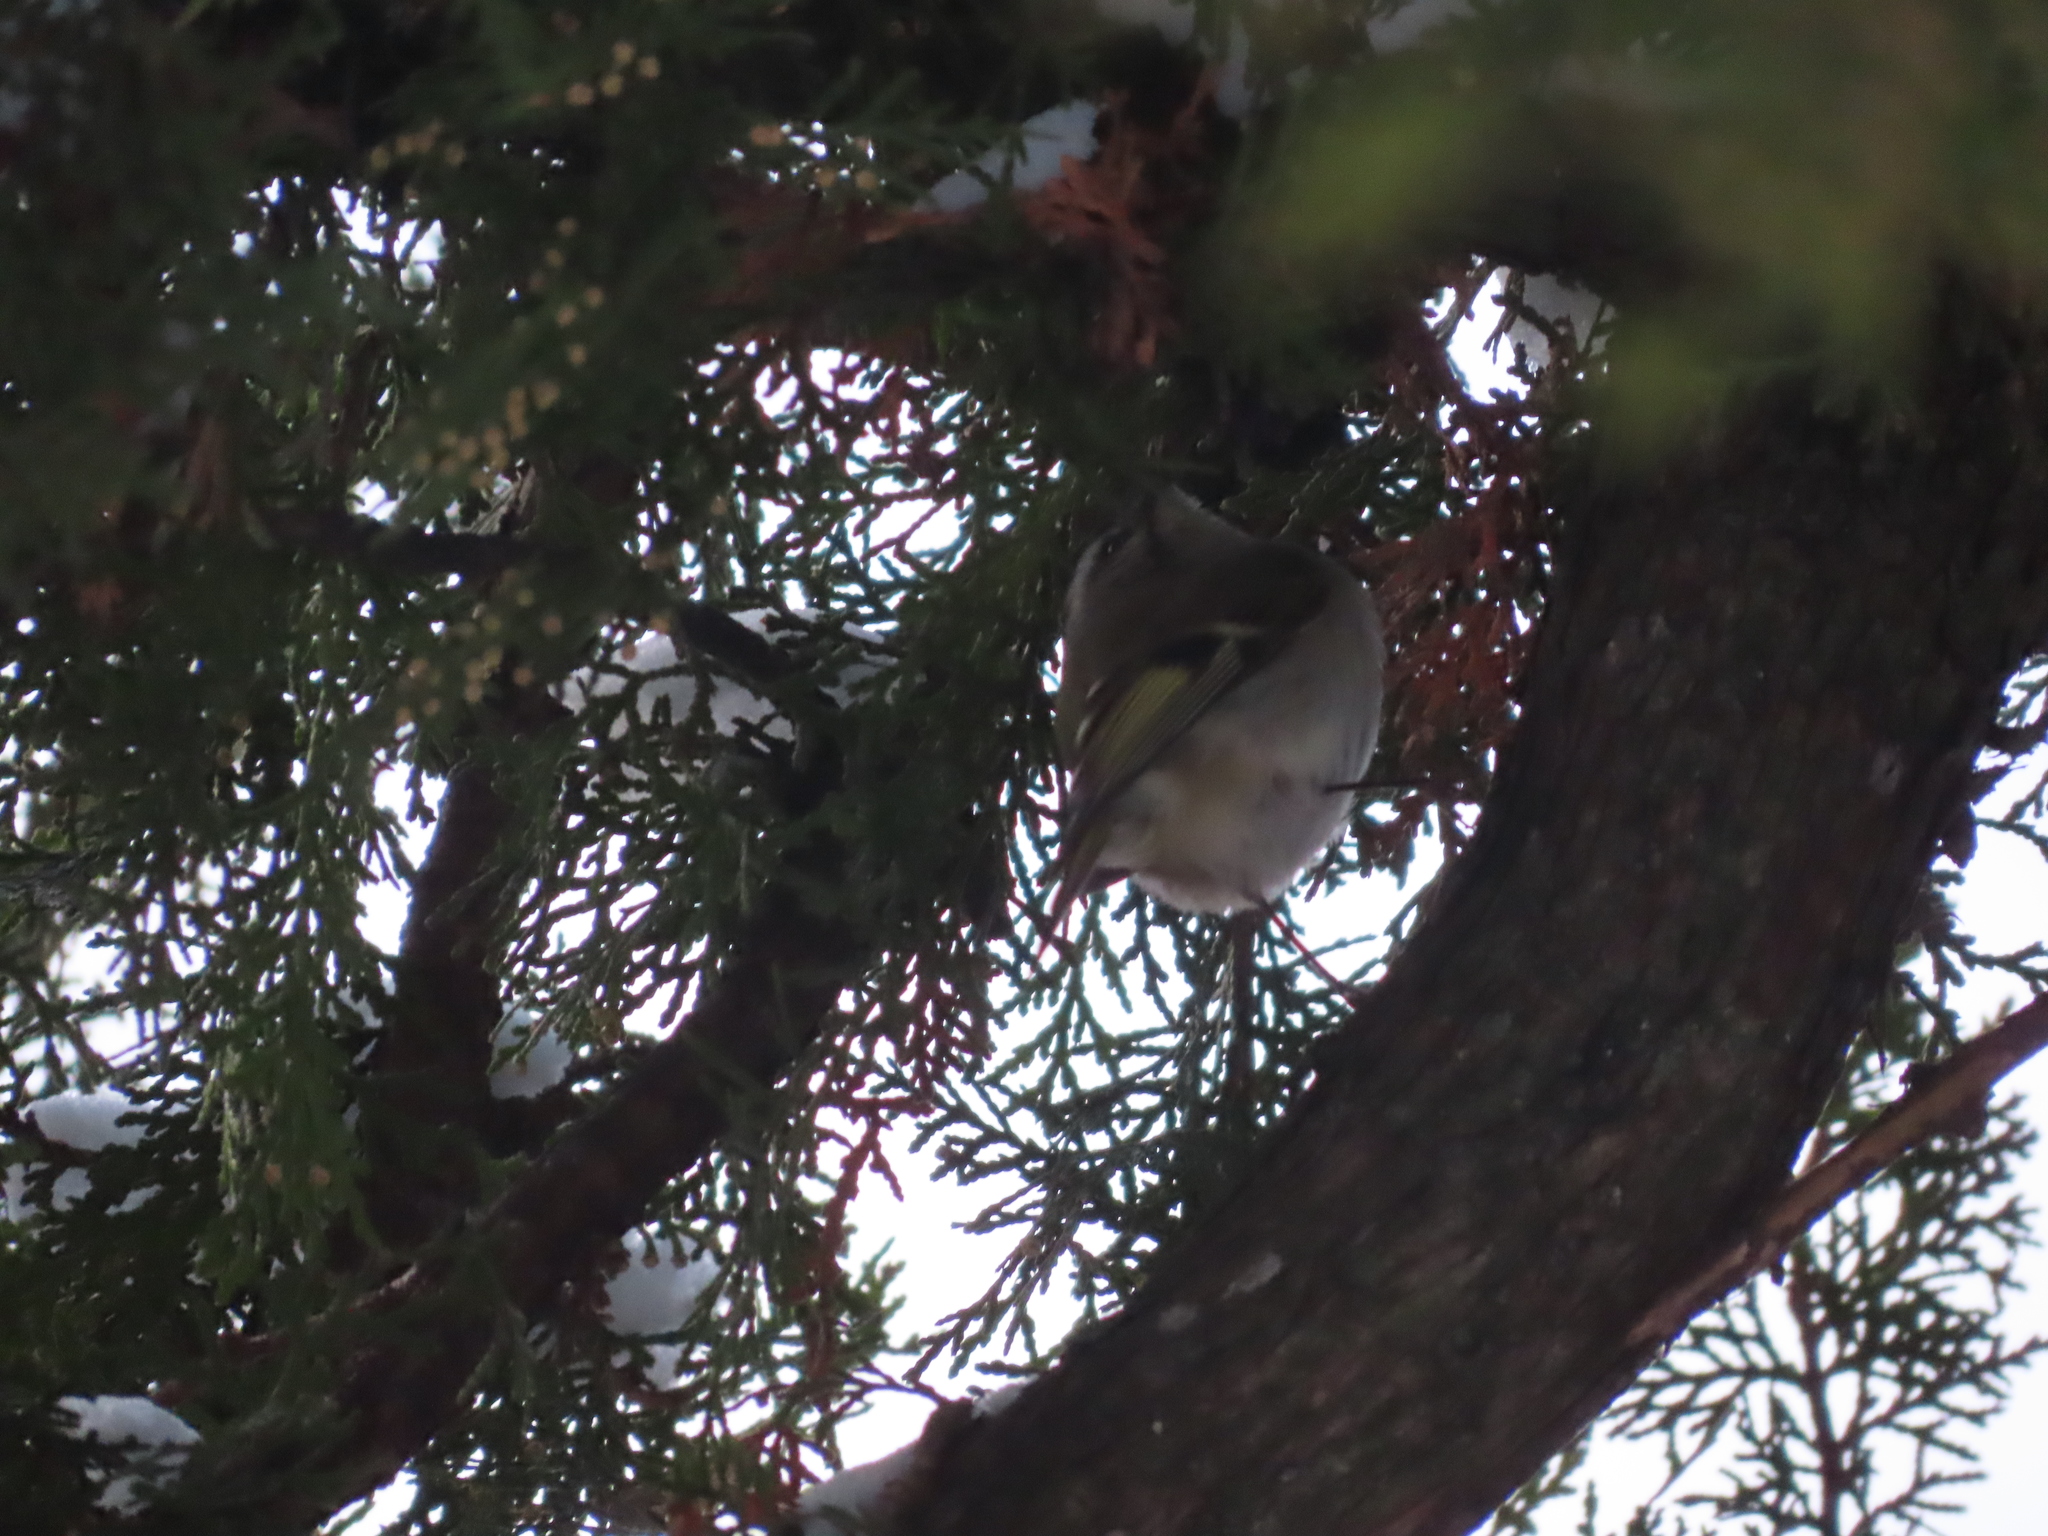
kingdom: Animalia
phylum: Chordata
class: Aves
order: Passeriformes
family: Regulidae
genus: Regulus
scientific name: Regulus satrapa
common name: Golden-crowned kinglet
